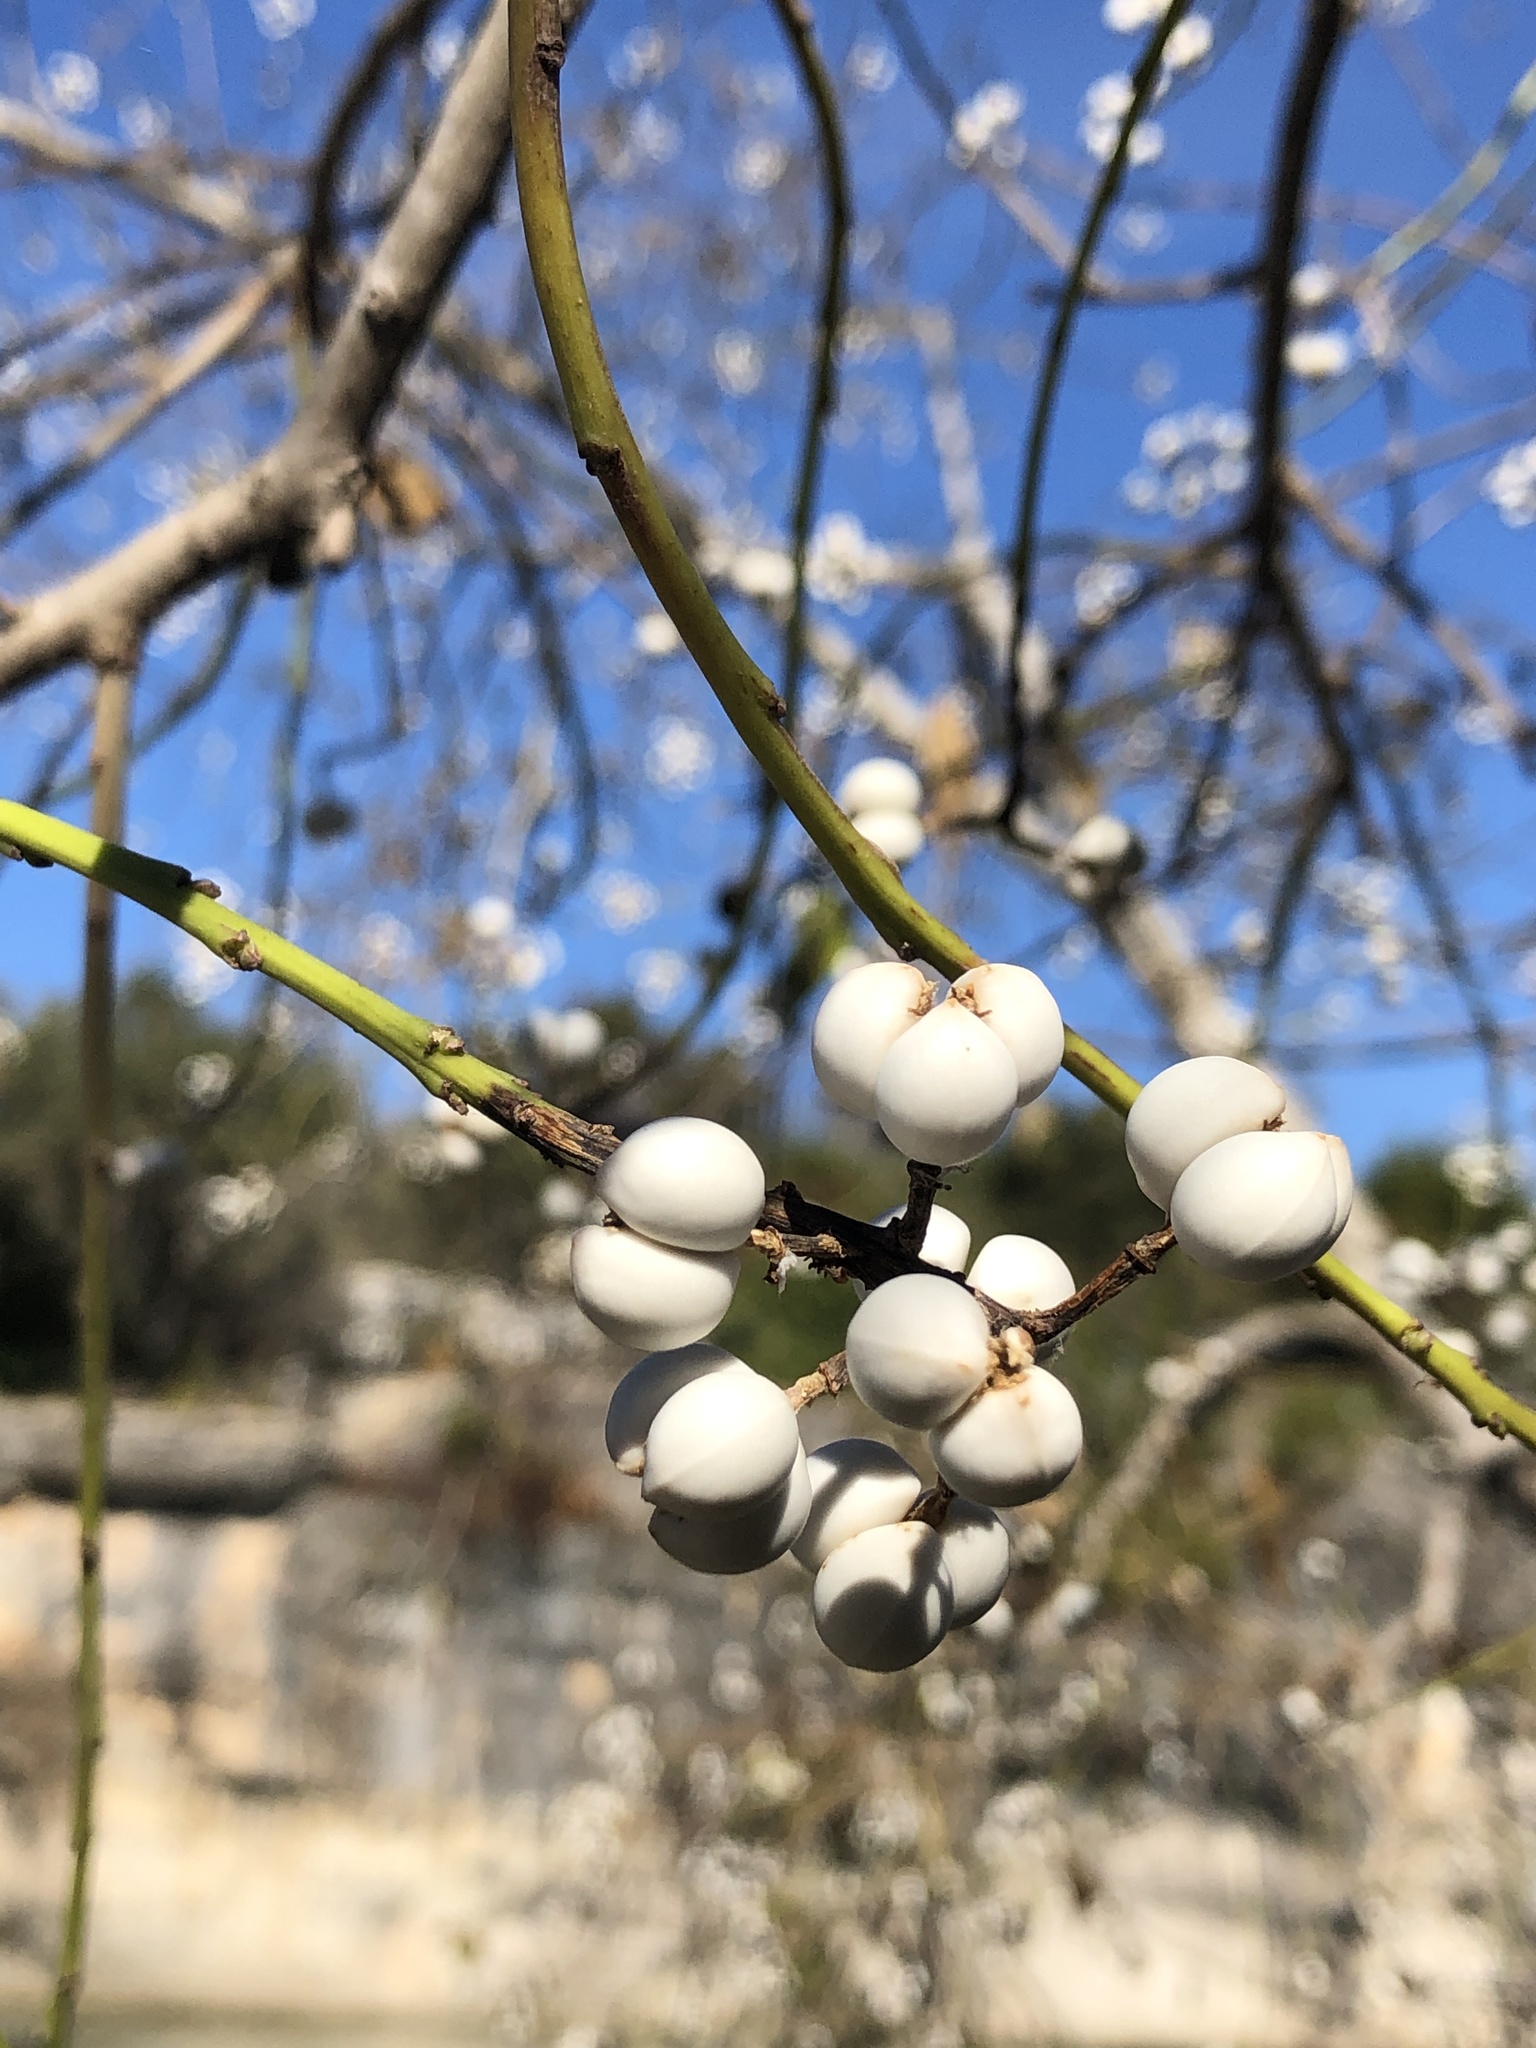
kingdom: Plantae
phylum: Tracheophyta
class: Magnoliopsida
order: Malpighiales
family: Euphorbiaceae
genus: Triadica
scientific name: Triadica sebifera
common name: Chinese tallow
